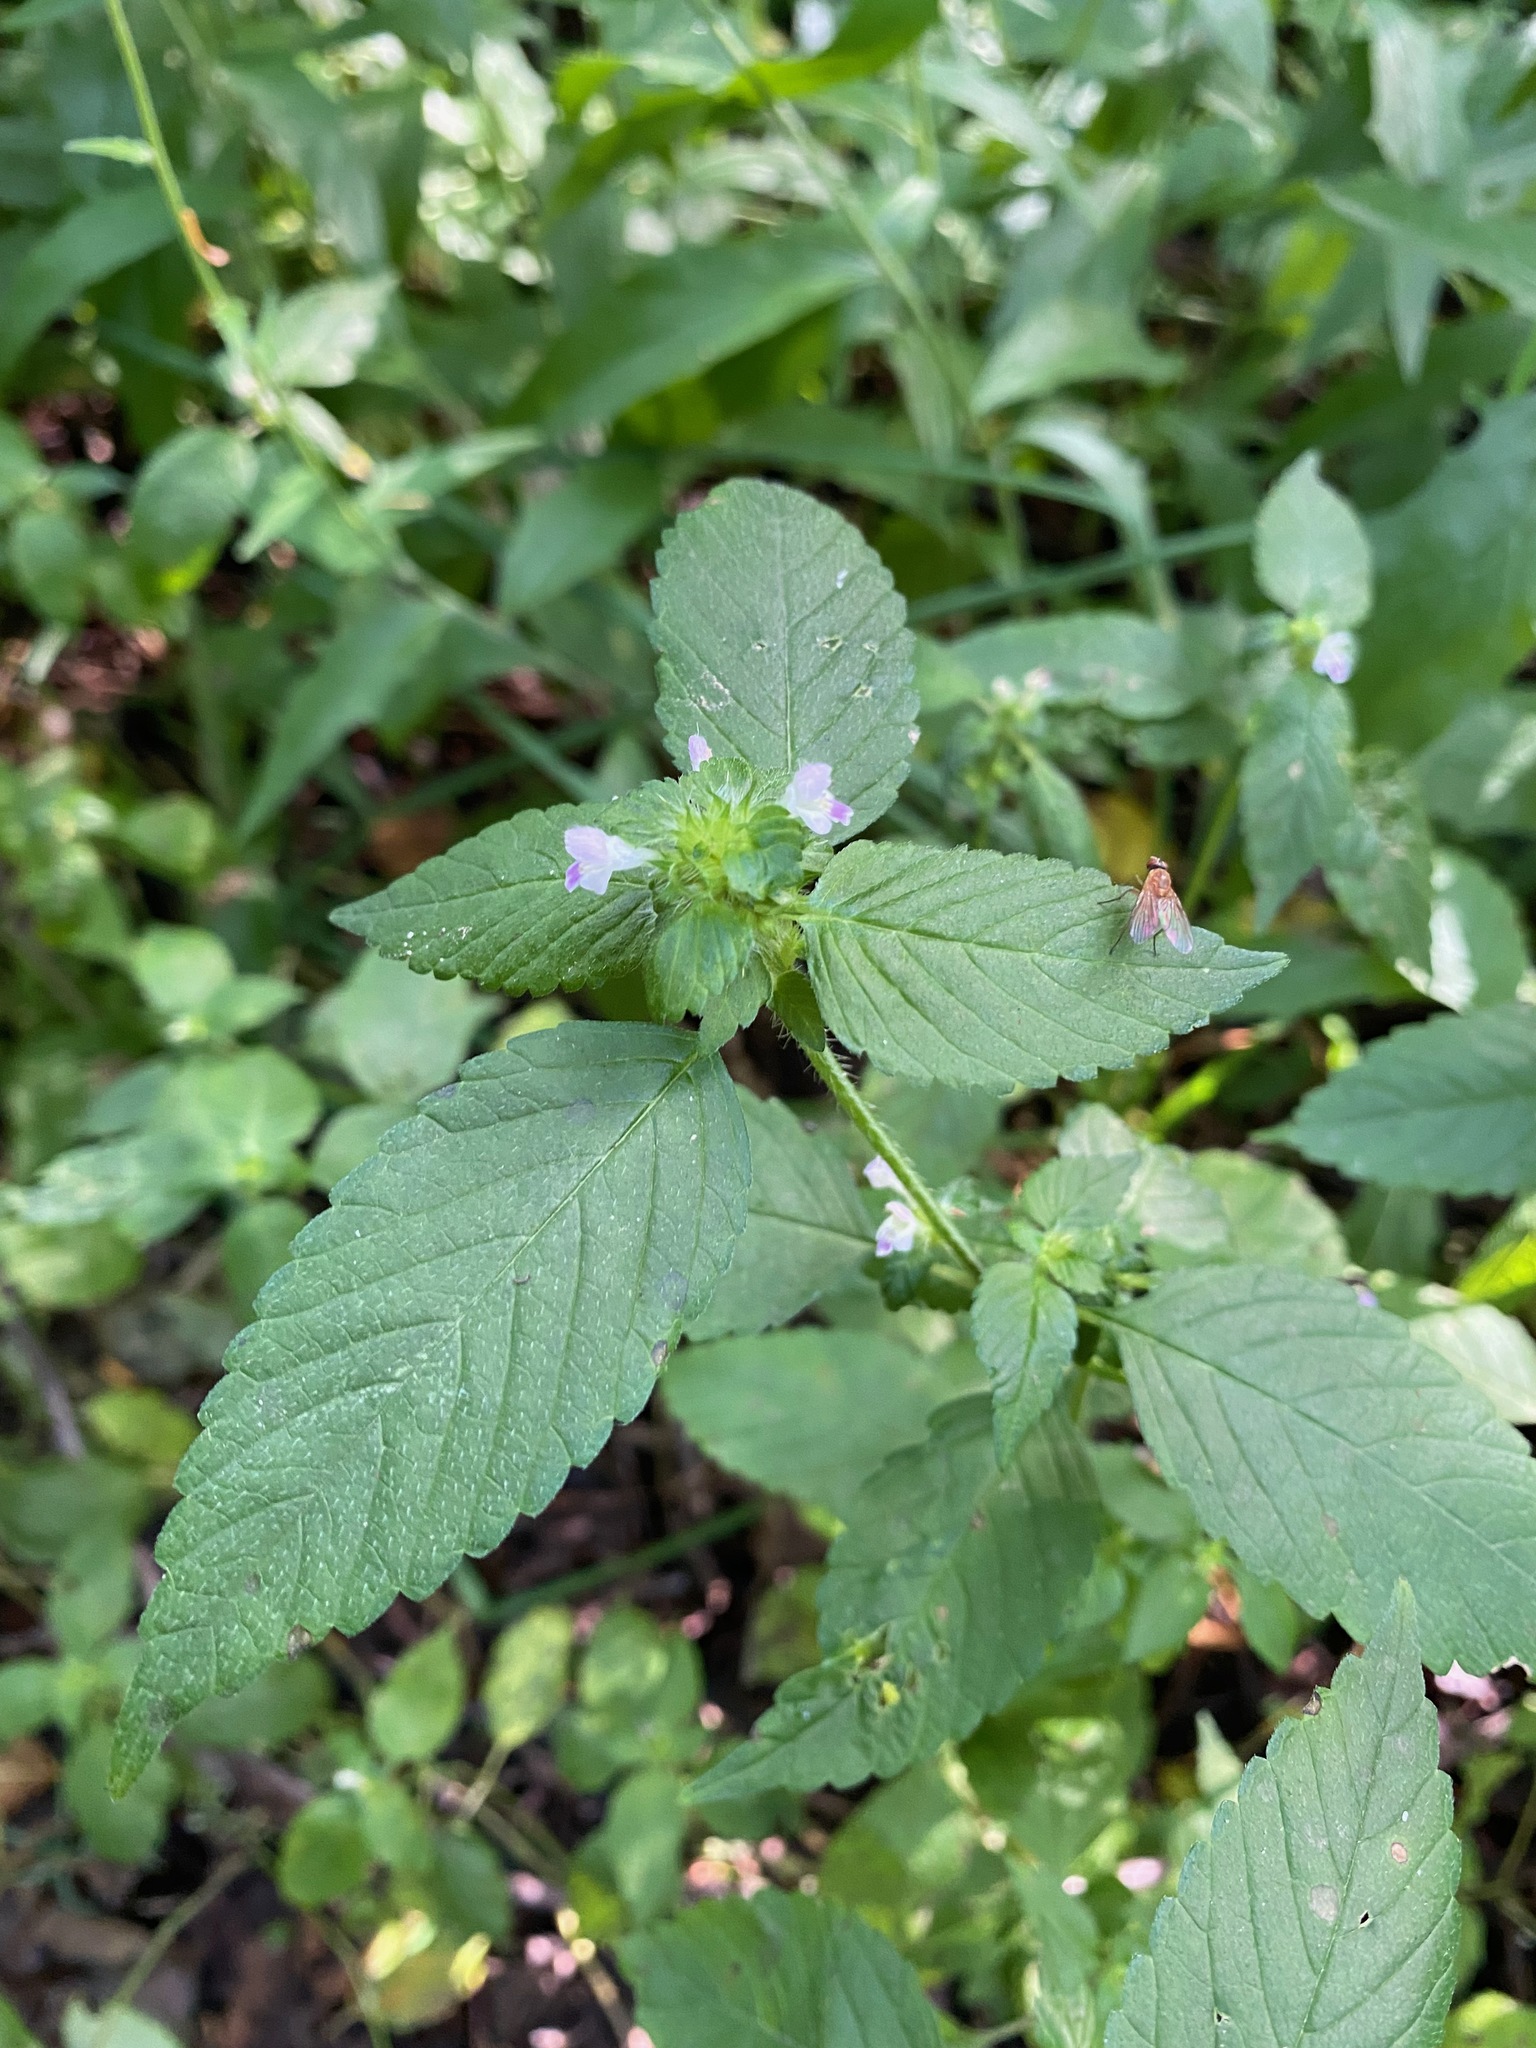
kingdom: Plantae
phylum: Tracheophyta
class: Magnoliopsida
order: Lamiales
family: Lamiaceae
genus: Galeopsis
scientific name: Galeopsis bifida
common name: Bifid hemp-nettle
